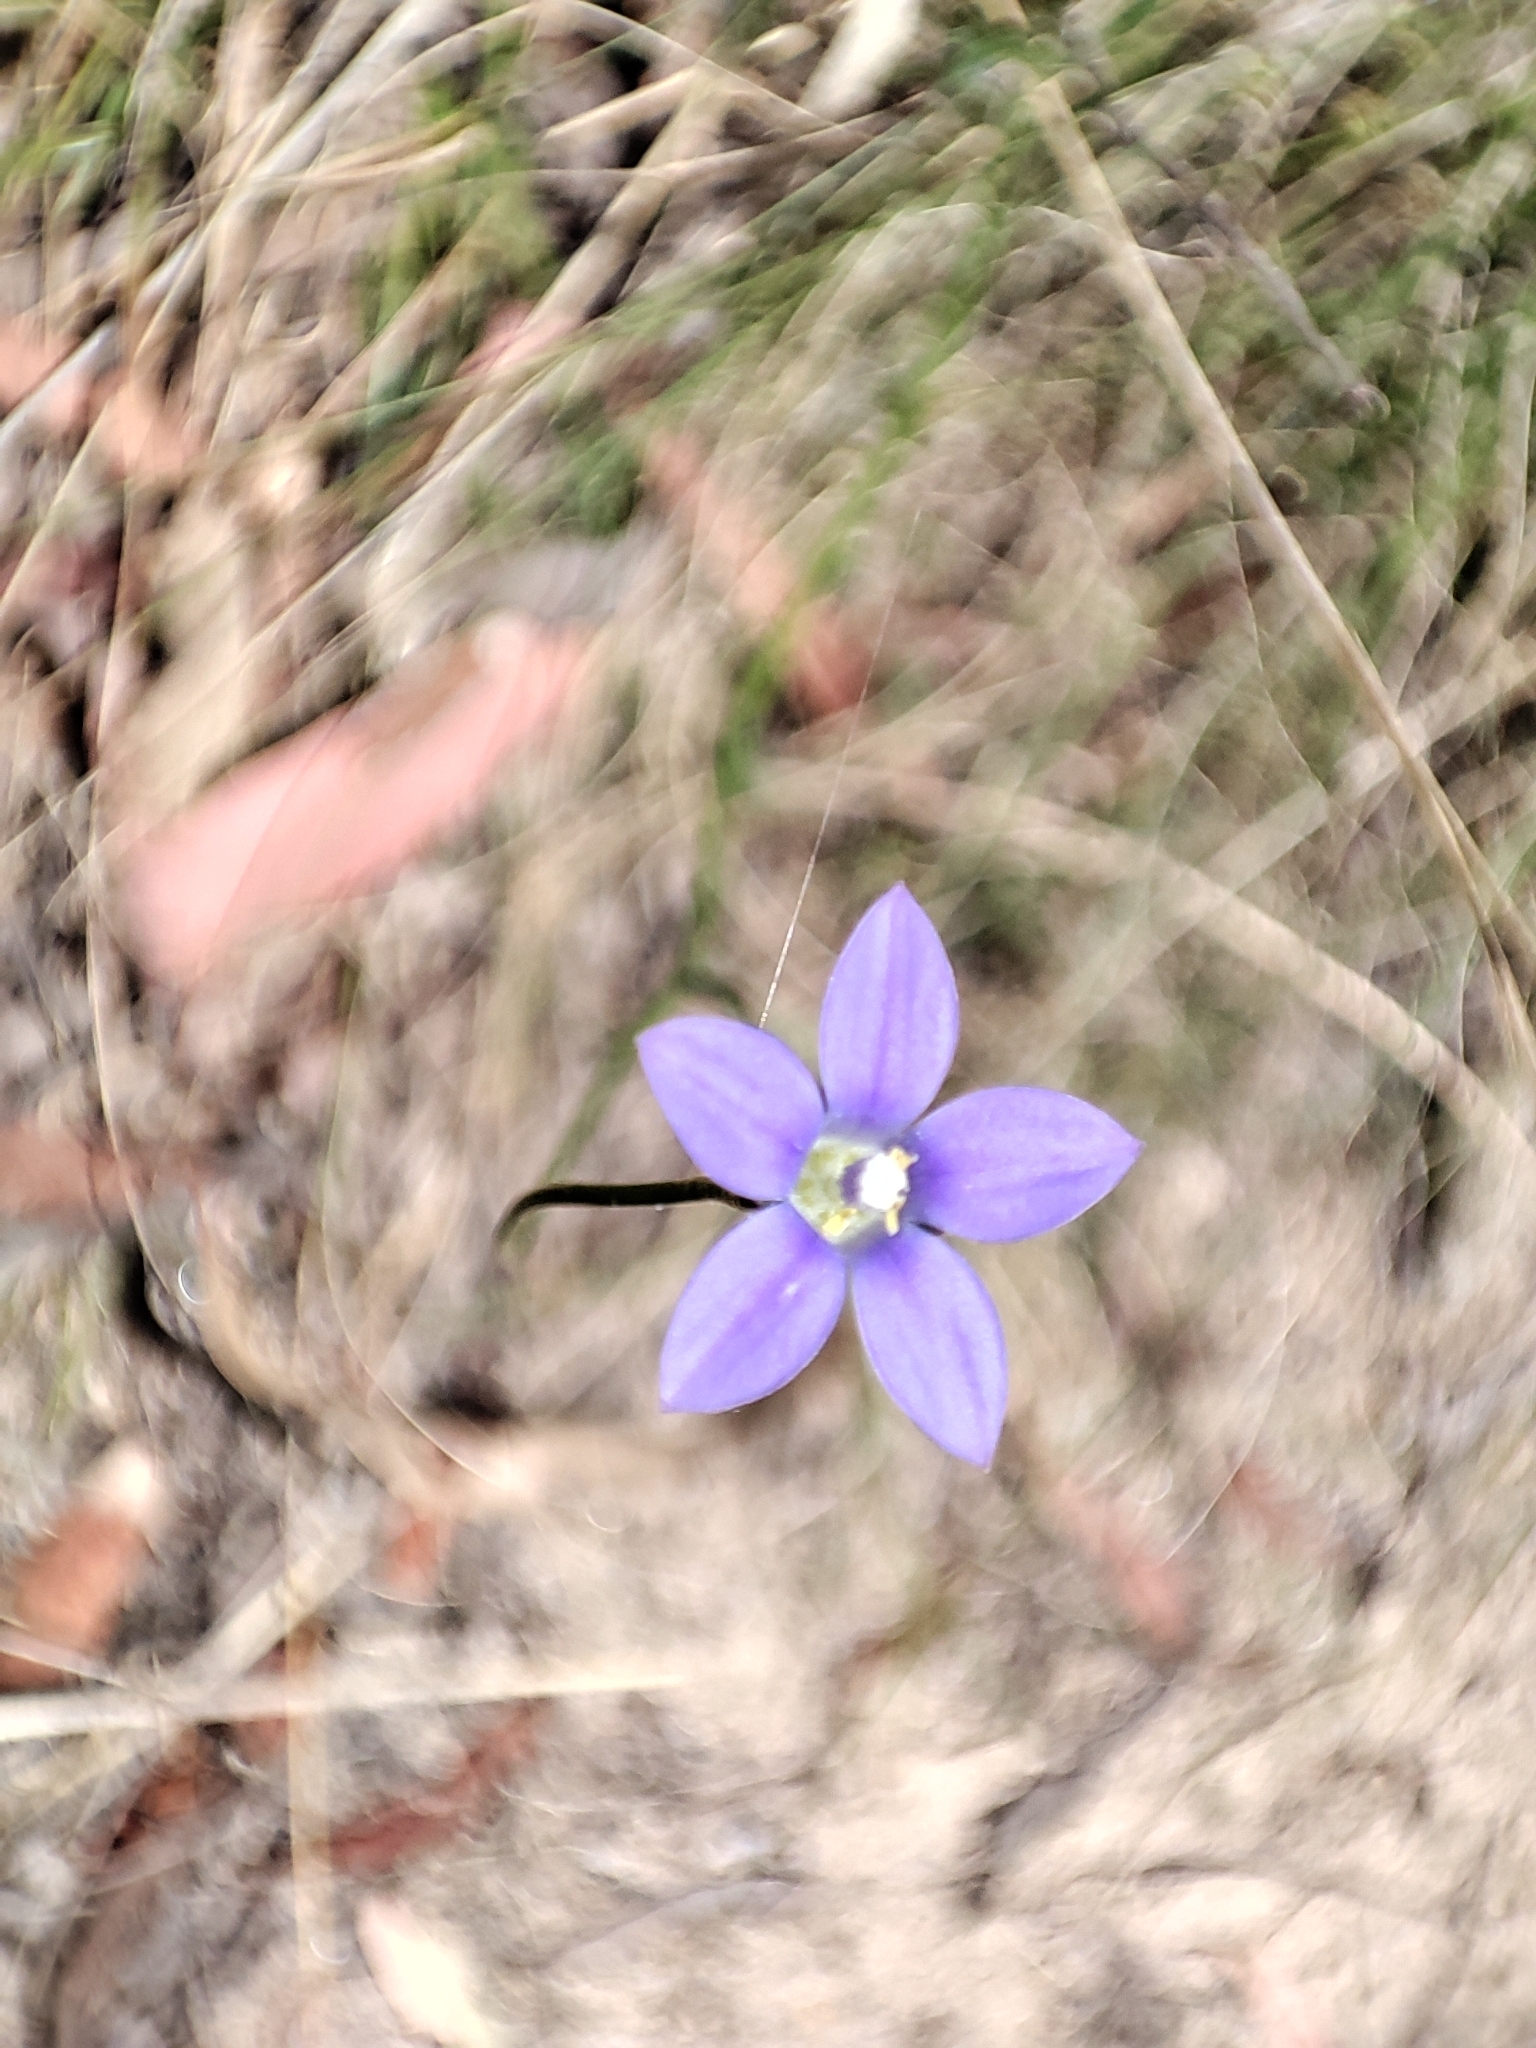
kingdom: Plantae
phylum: Tracheophyta
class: Magnoliopsida
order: Asterales
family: Campanulaceae
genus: Wahlenbergia
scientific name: Wahlenbergia
